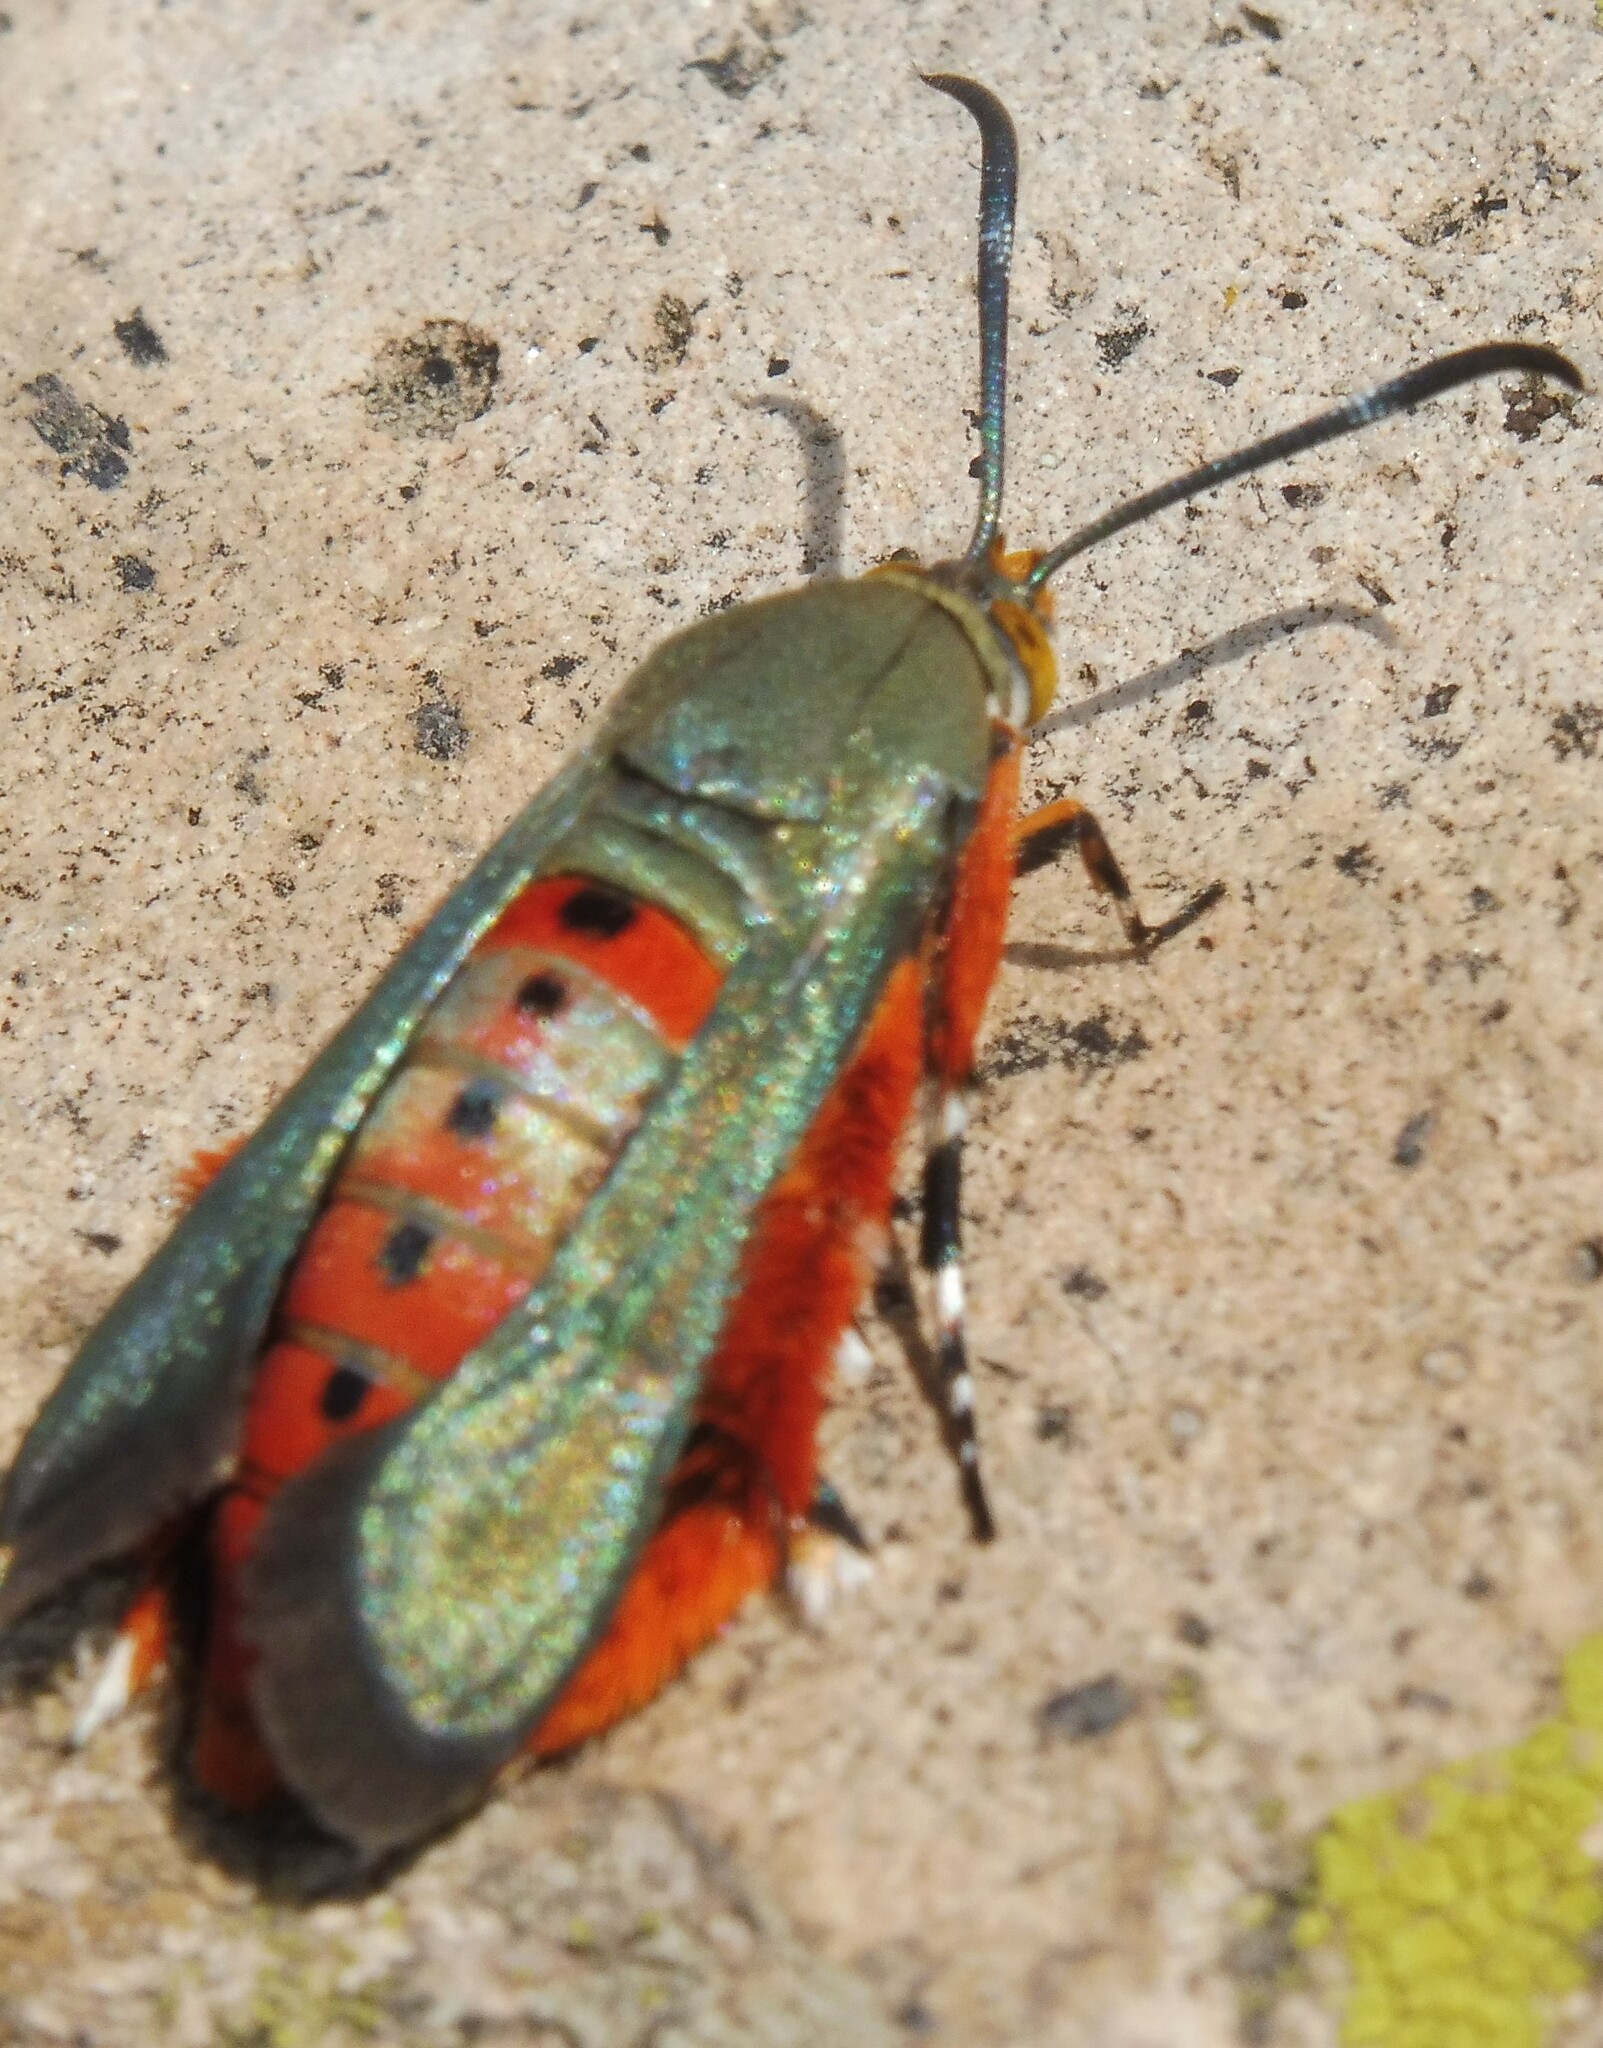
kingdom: Animalia
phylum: Arthropoda
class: Insecta
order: Lepidoptera
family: Sesiidae
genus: Eichlinia
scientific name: Eichlinia calabaza
